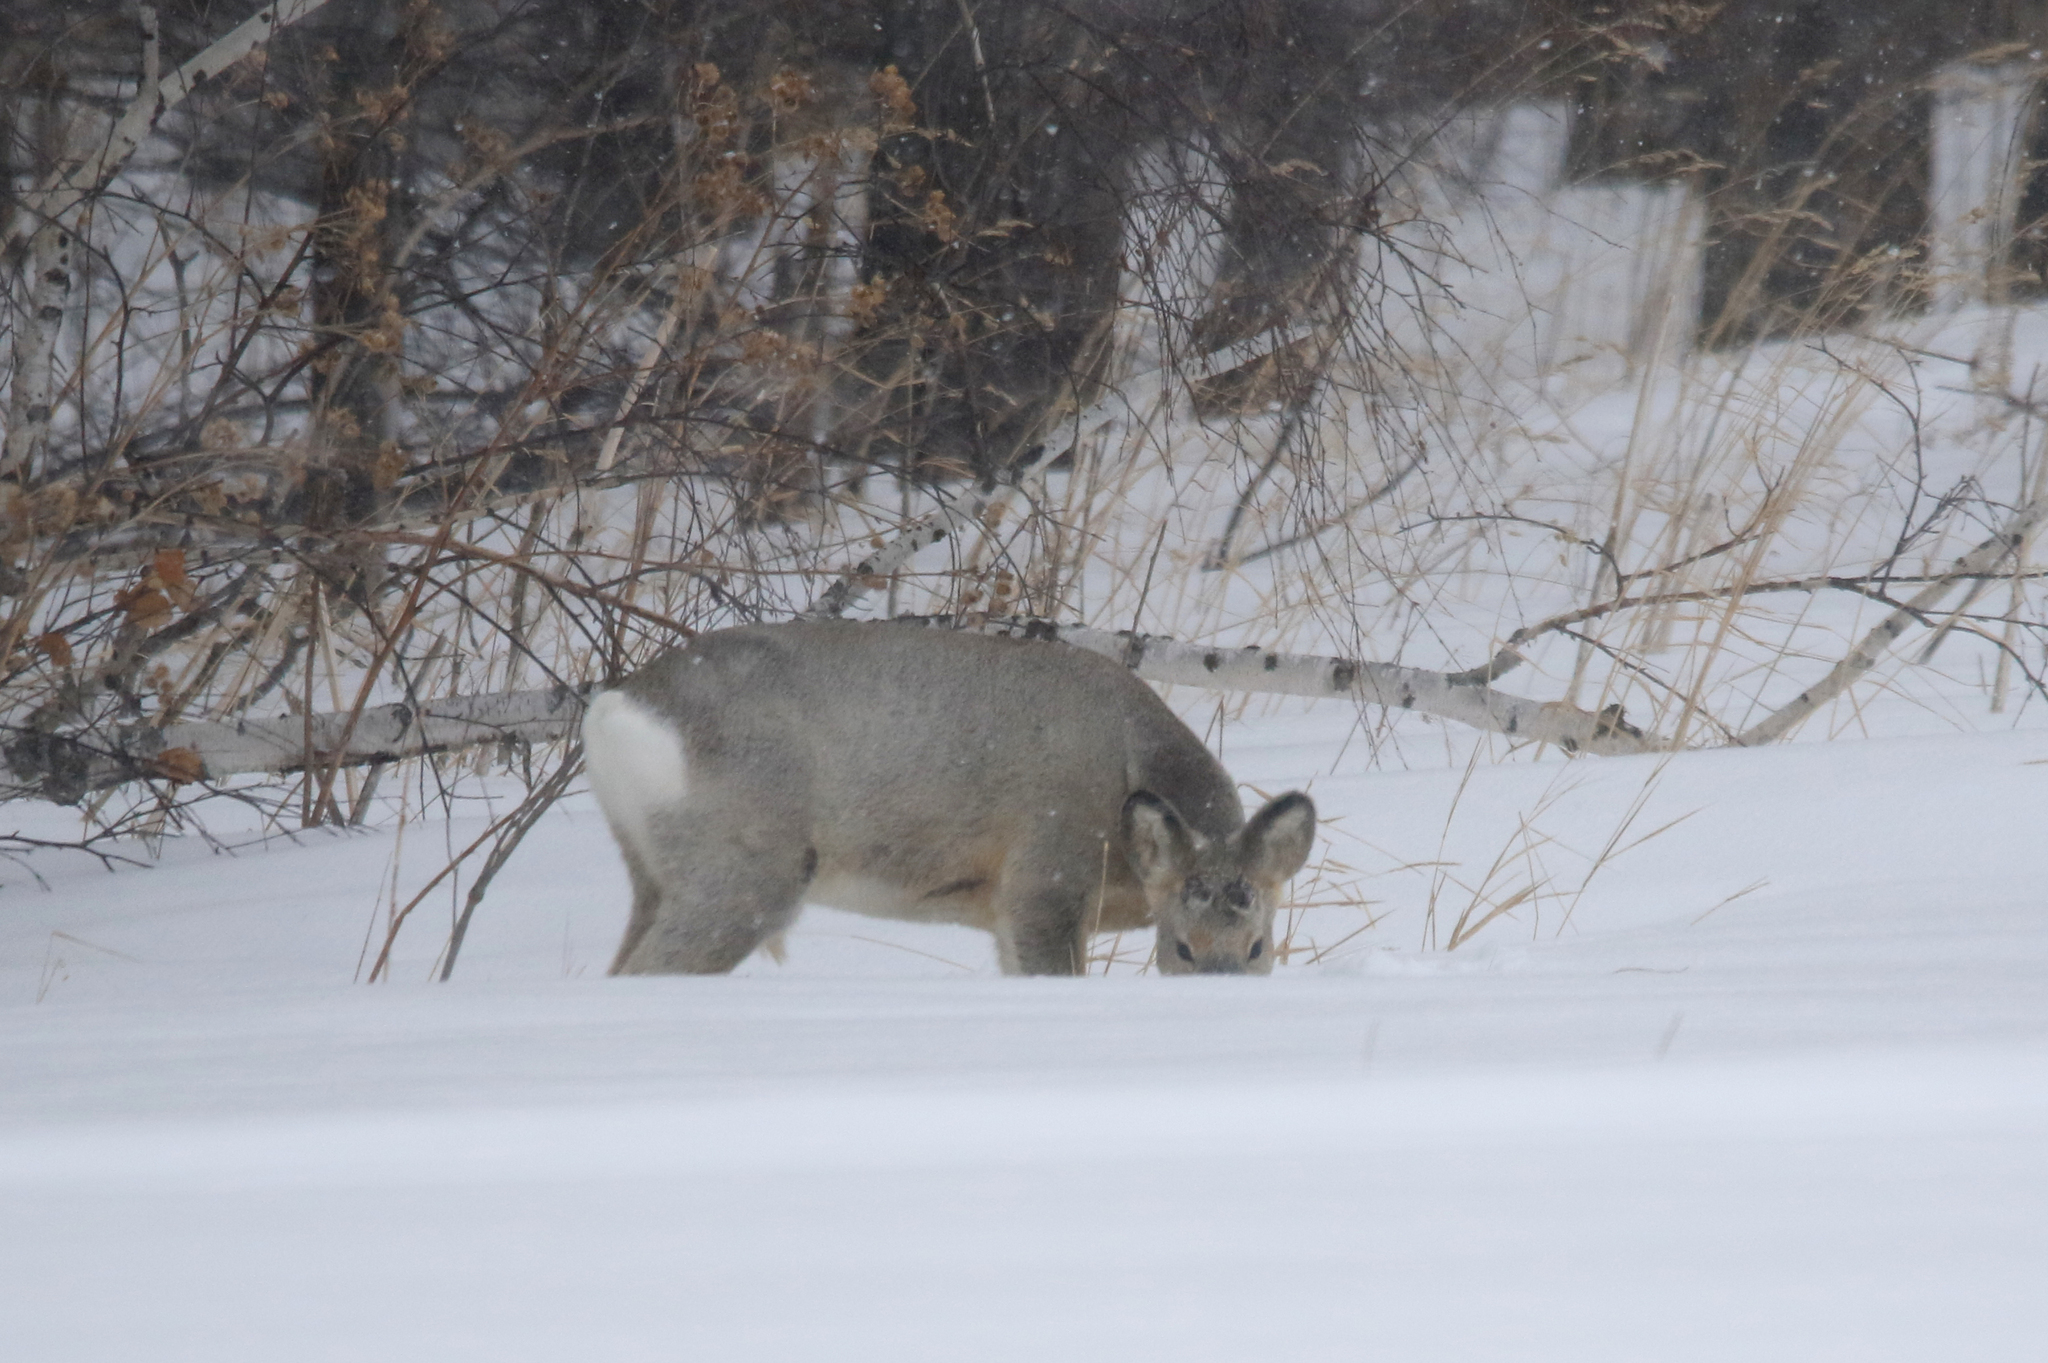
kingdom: Animalia
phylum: Chordata
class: Mammalia
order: Artiodactyla
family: Cervidae
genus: Capreolus
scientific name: Capreolus pygargus
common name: Siberian roe
